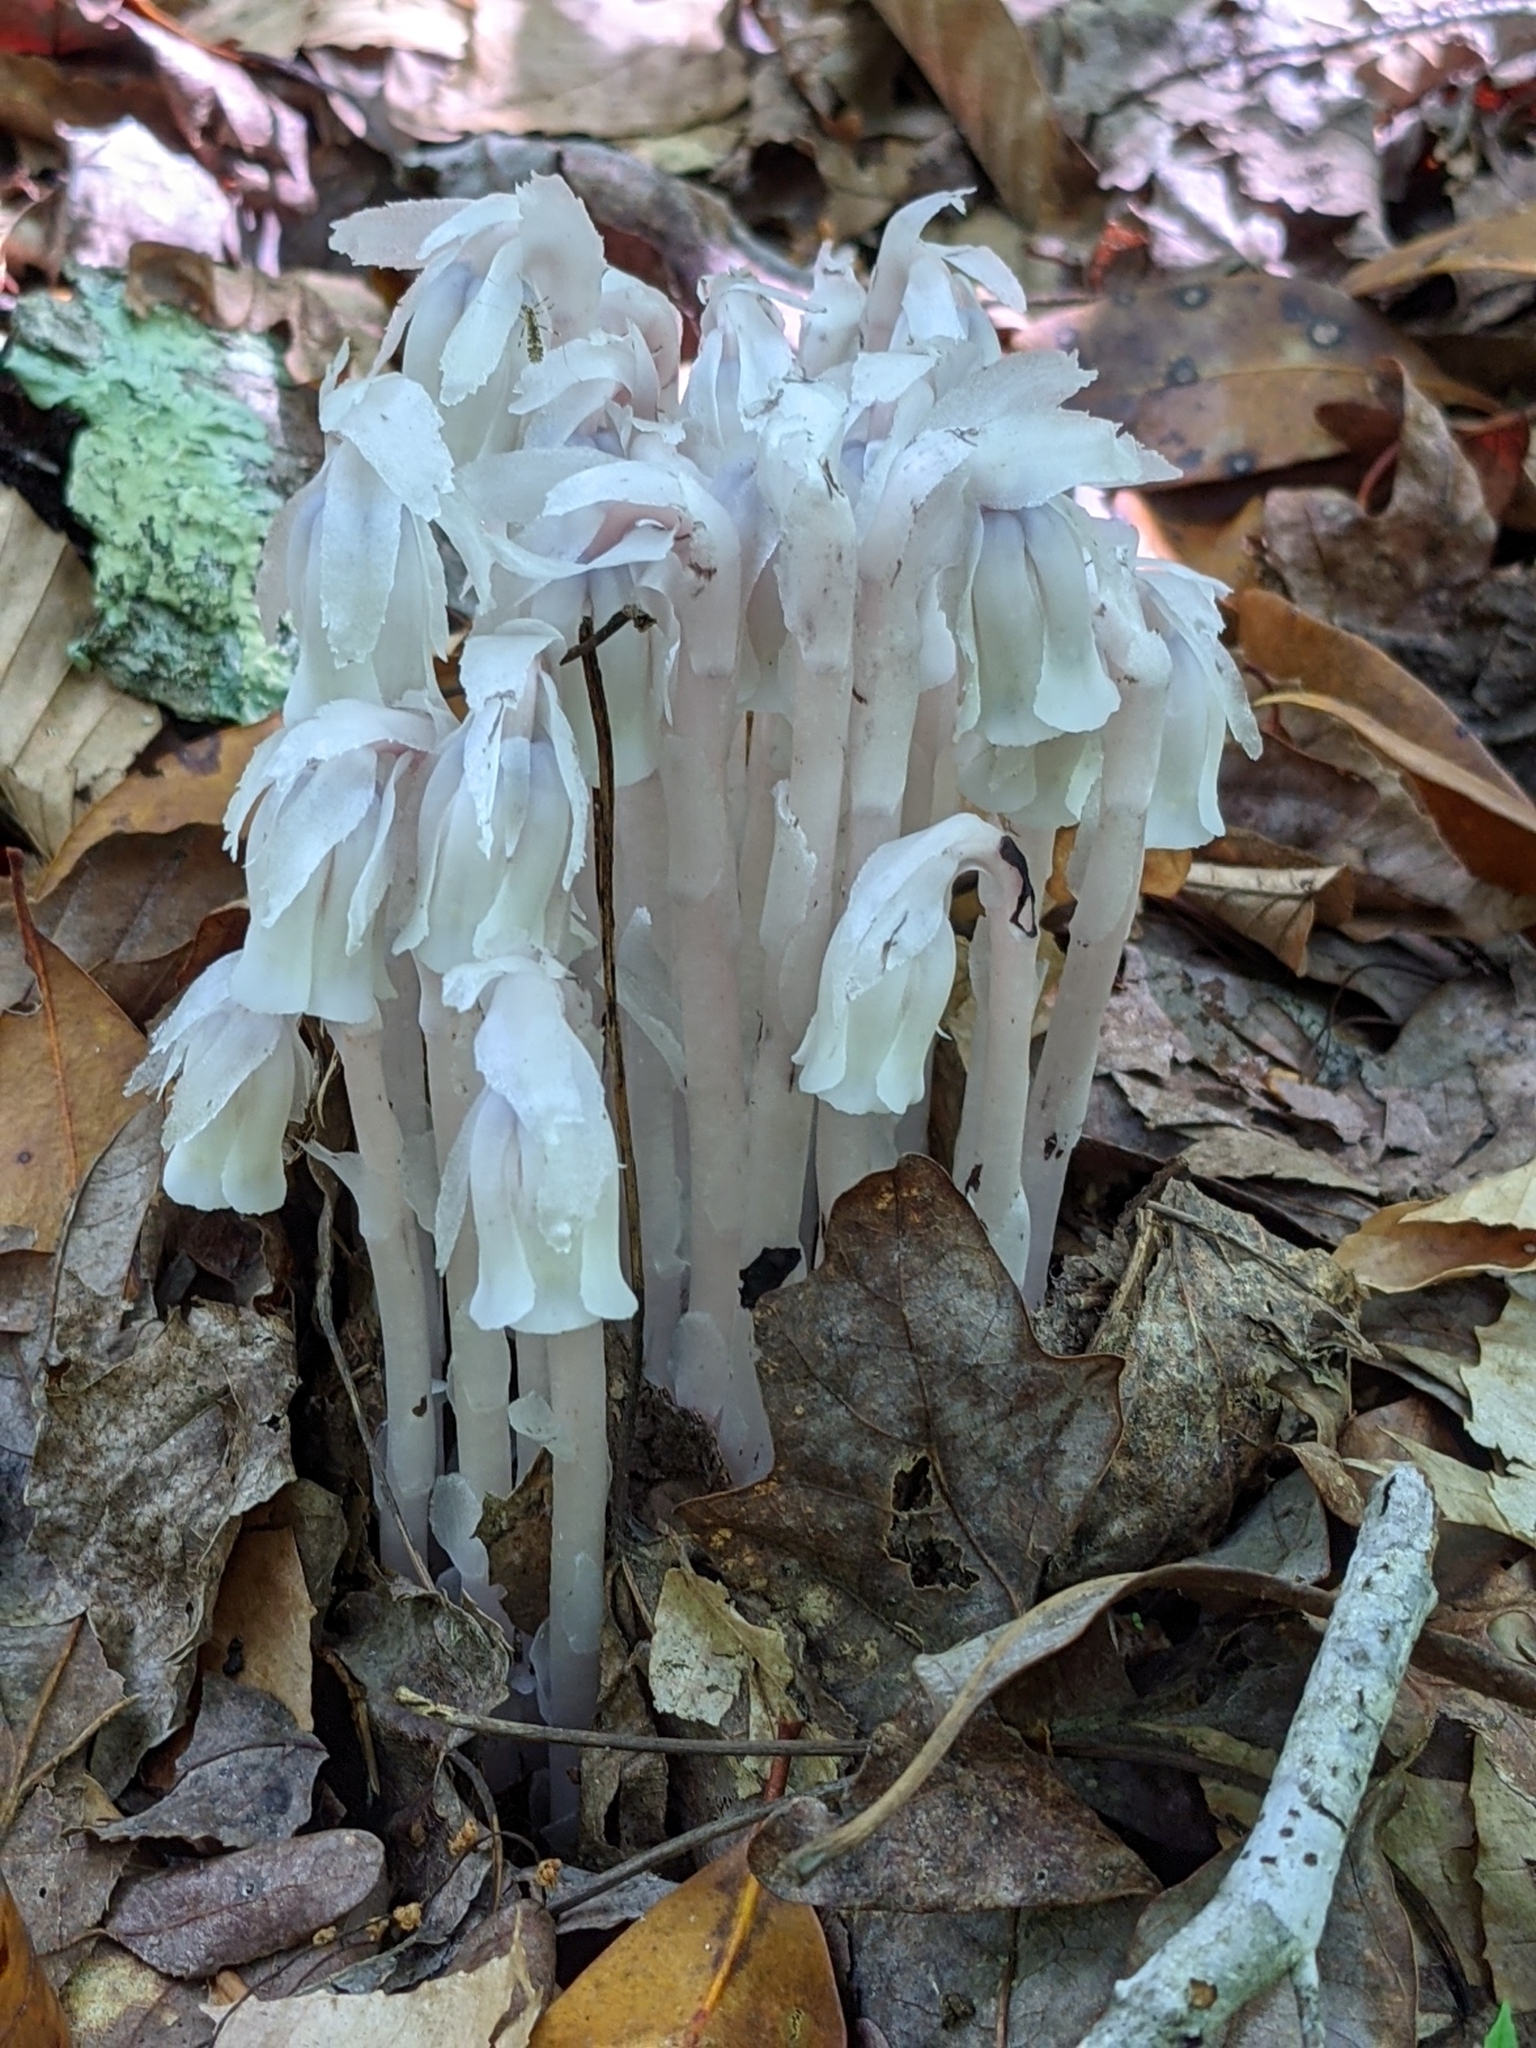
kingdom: Plantae
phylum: Tracheophyta
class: Magnoliopsida
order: Ericales
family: Ericaceae
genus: Monotropa
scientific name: Monotropa uniflora
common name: Convulsion root
